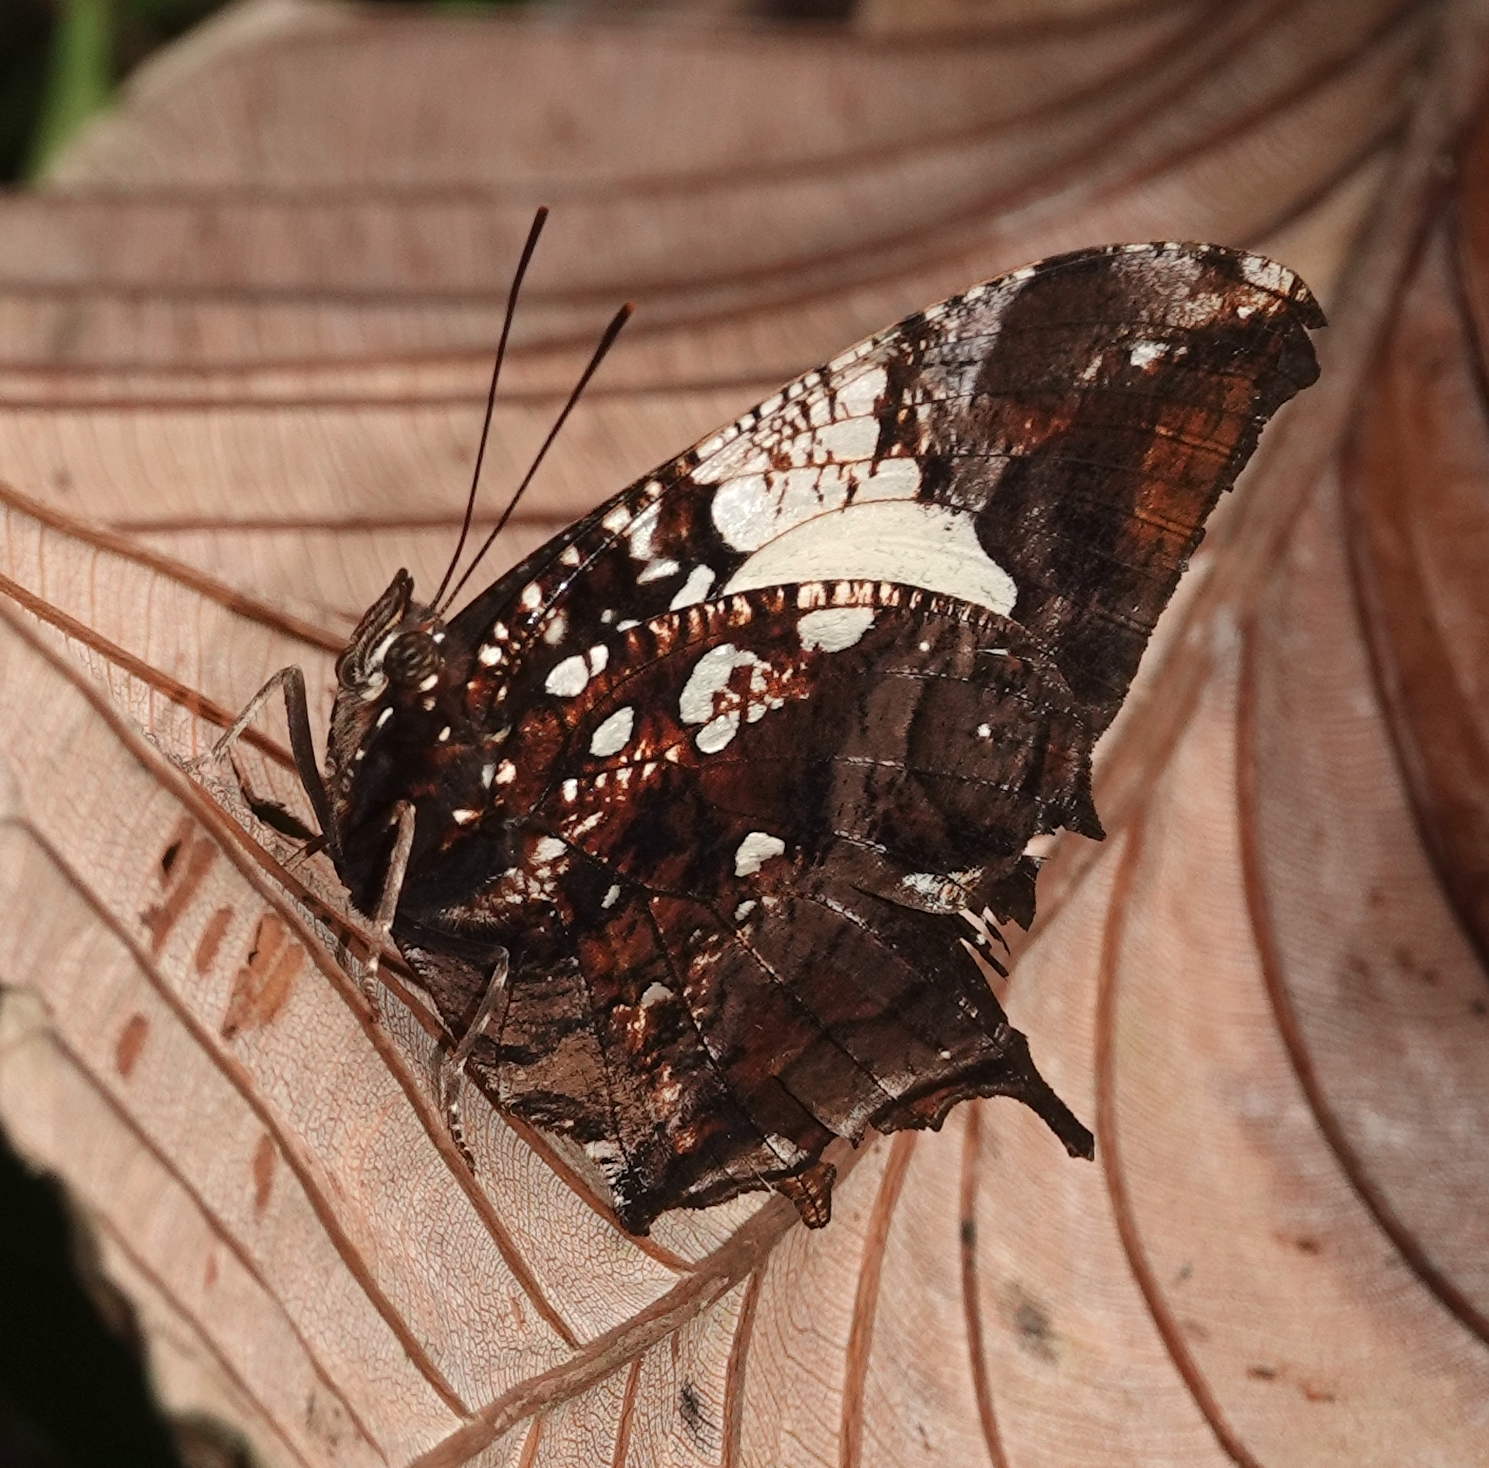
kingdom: Animalia
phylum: Arthropoda
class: Insecta
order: Lepidoptera
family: Nymphalidae
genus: Hypna
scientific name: Hypna clytemnestra
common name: Silver-studded leafwing
